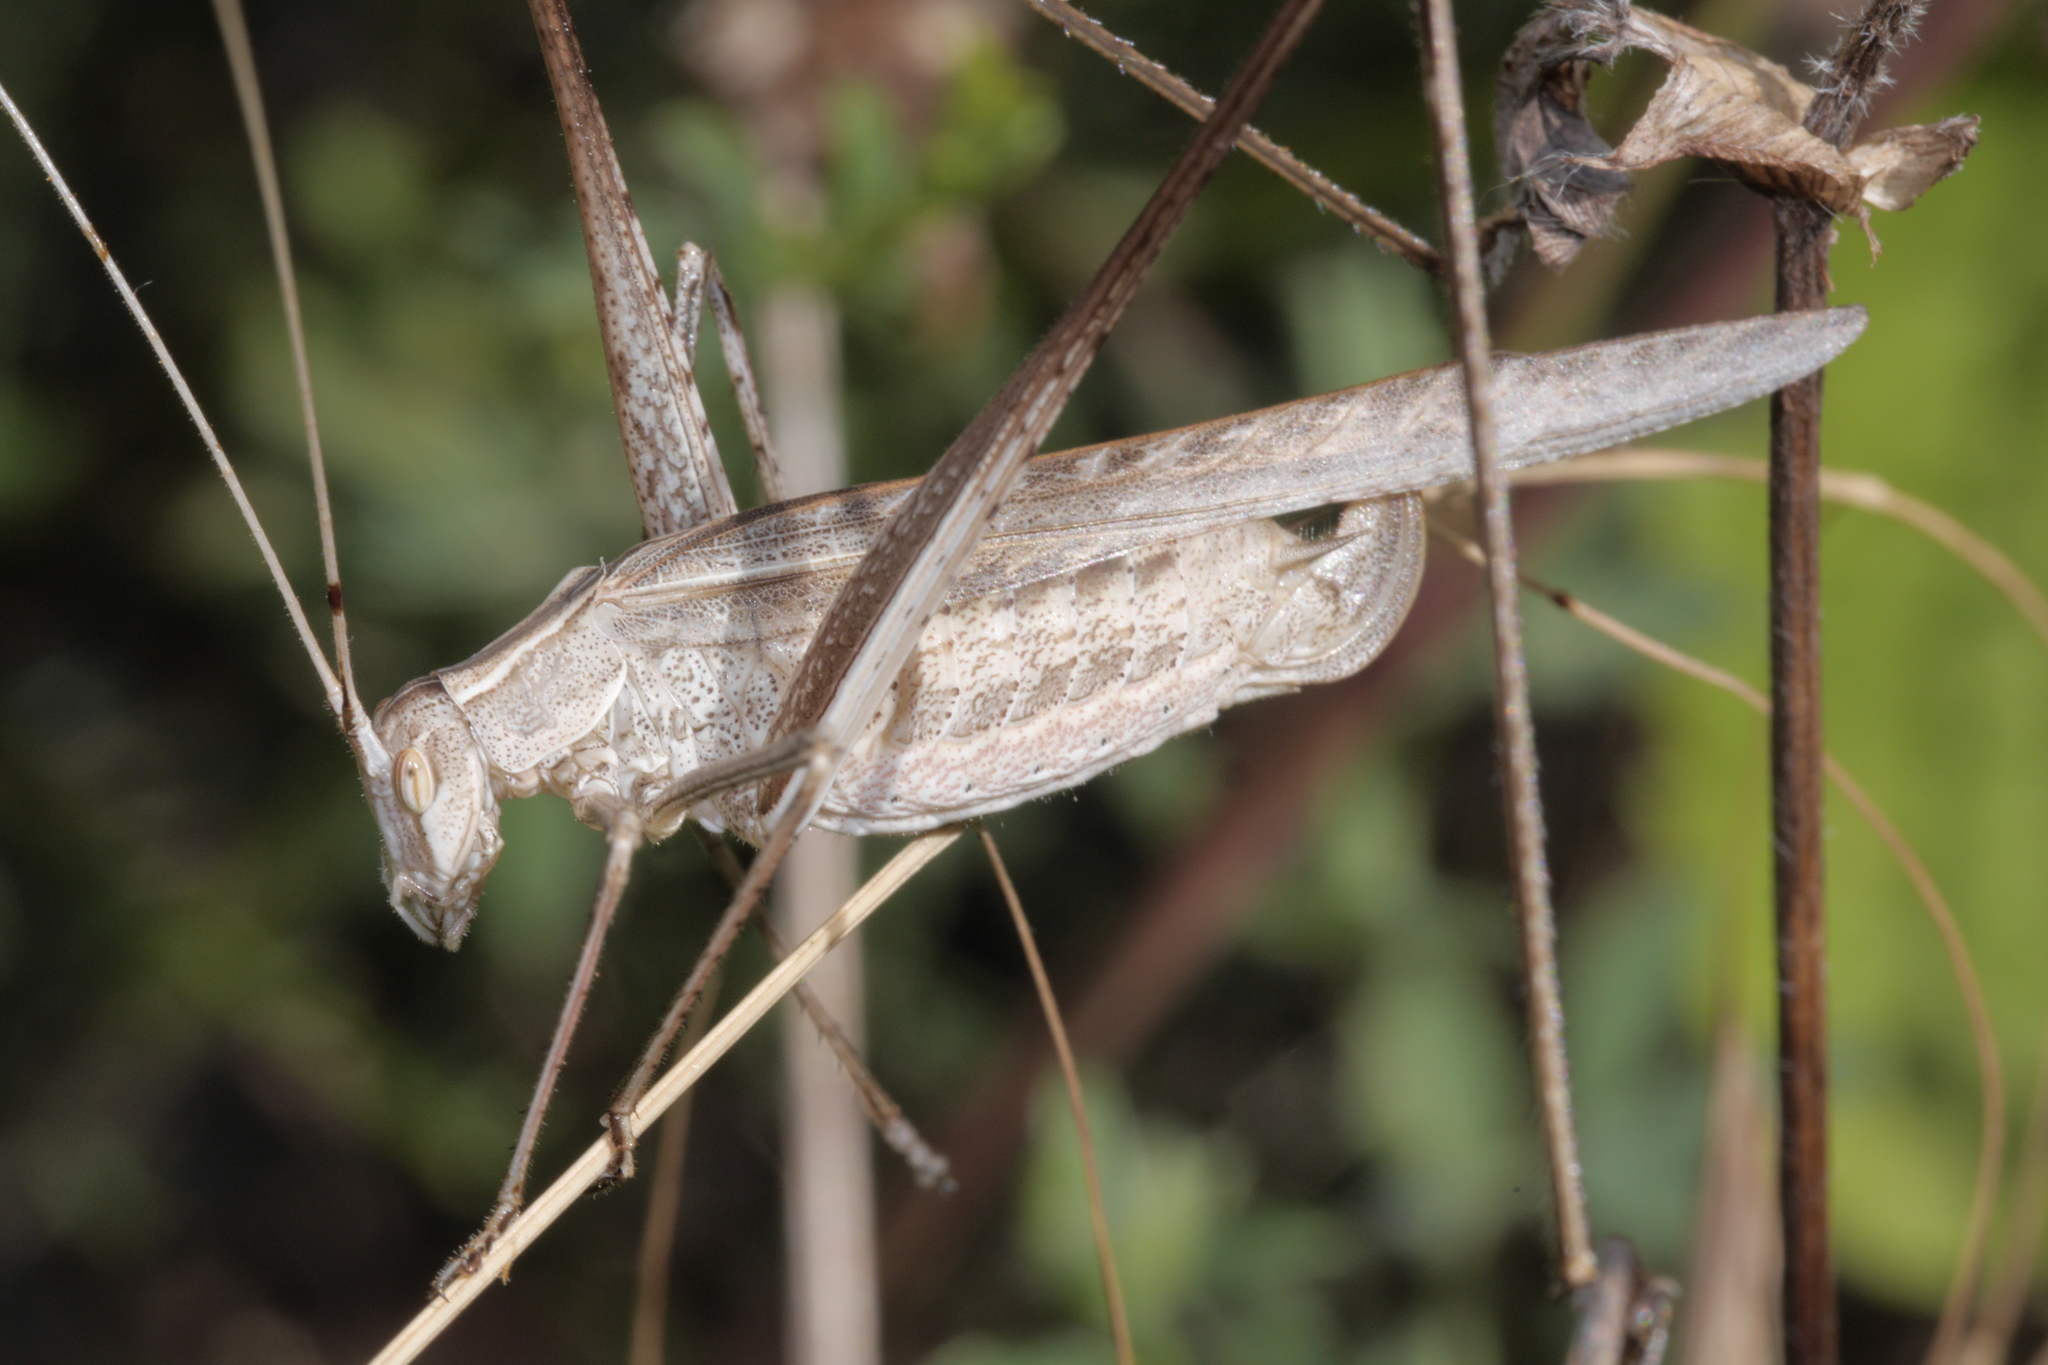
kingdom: Animalia
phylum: Arthropoda
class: Insecta
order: Orthoptera
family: Tettigoniidae
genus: Tylopsis
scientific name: Tylopsis lilifolia
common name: Lily bush-cricket
